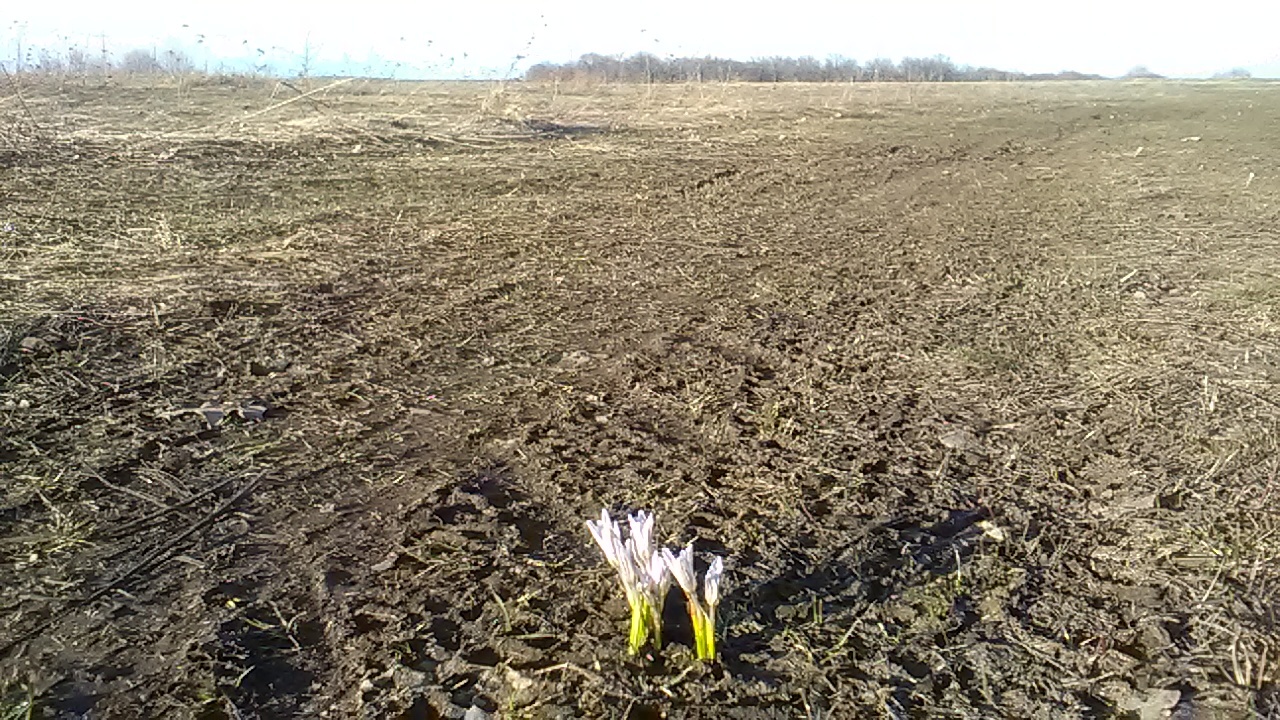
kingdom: Plantae
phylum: Tracheophyta
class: Liliopsida
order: Asparagales
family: Iridaceae
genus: Crocus
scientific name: Crocus reticulatus
